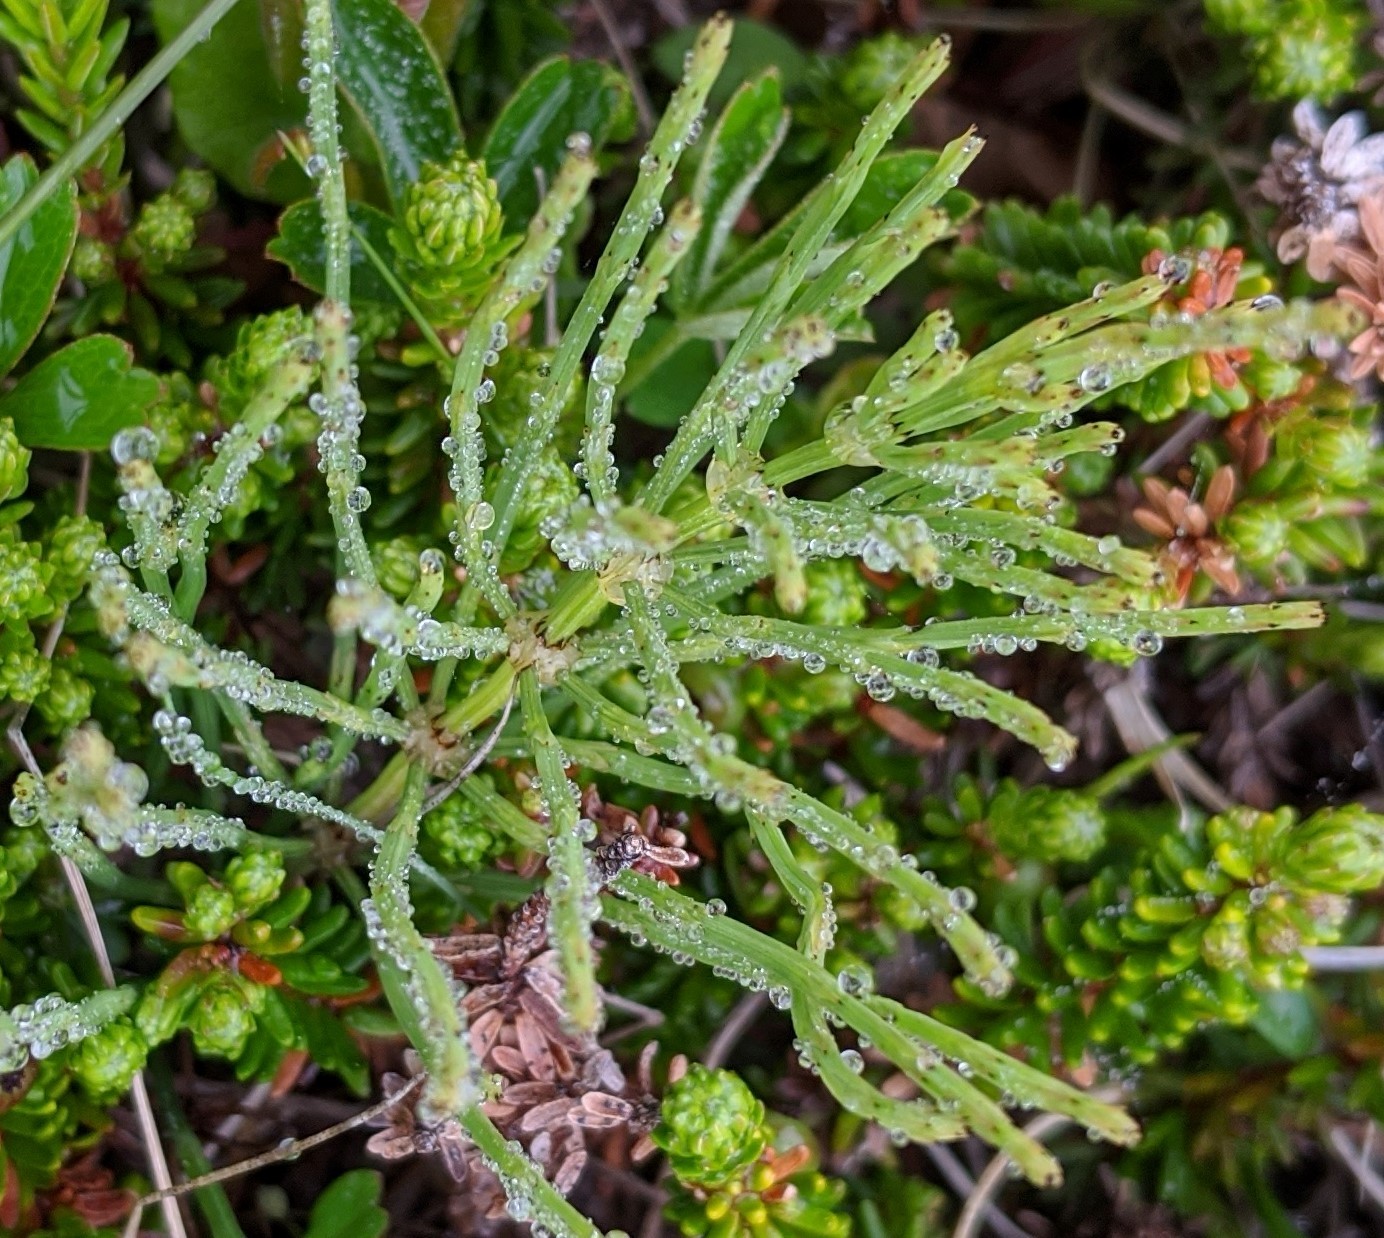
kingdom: Plantae
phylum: Tracheophyta
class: Polypodiopsida
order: Equisetales
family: Equisetaceae
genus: Equisetum
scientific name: Equisetum arvense
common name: Field horsetail
